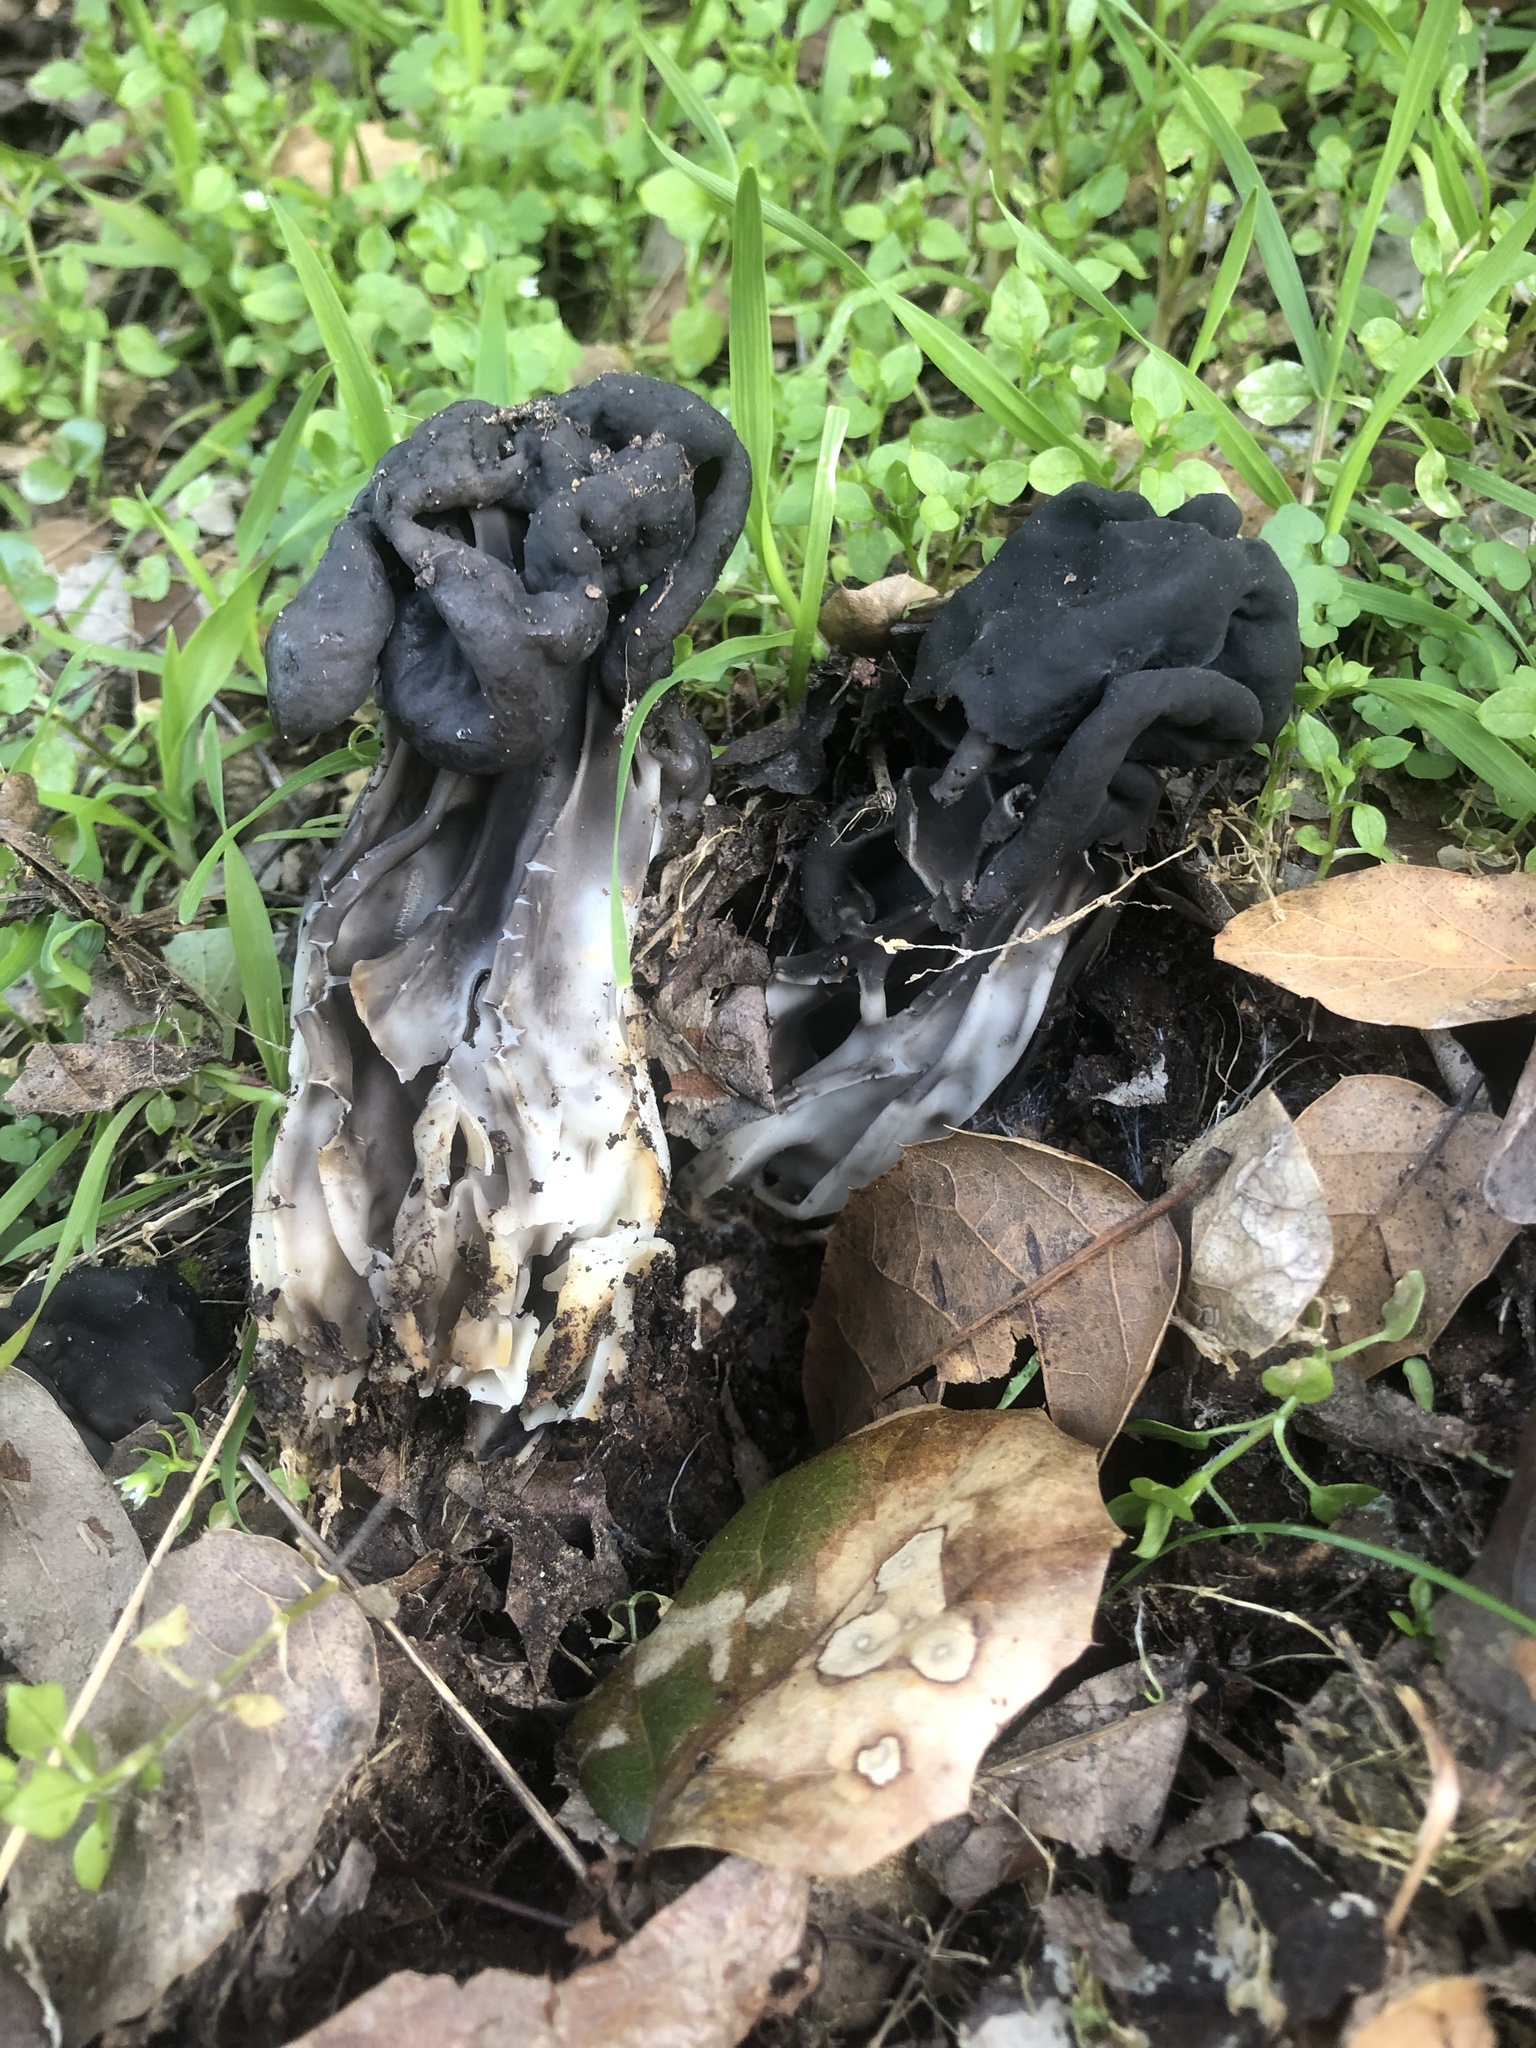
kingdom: Fungi
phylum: Ascomycota
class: Pezizomycetes
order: Pezizales
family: Helvellaceae
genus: Helvella
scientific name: Helvella dryophila
